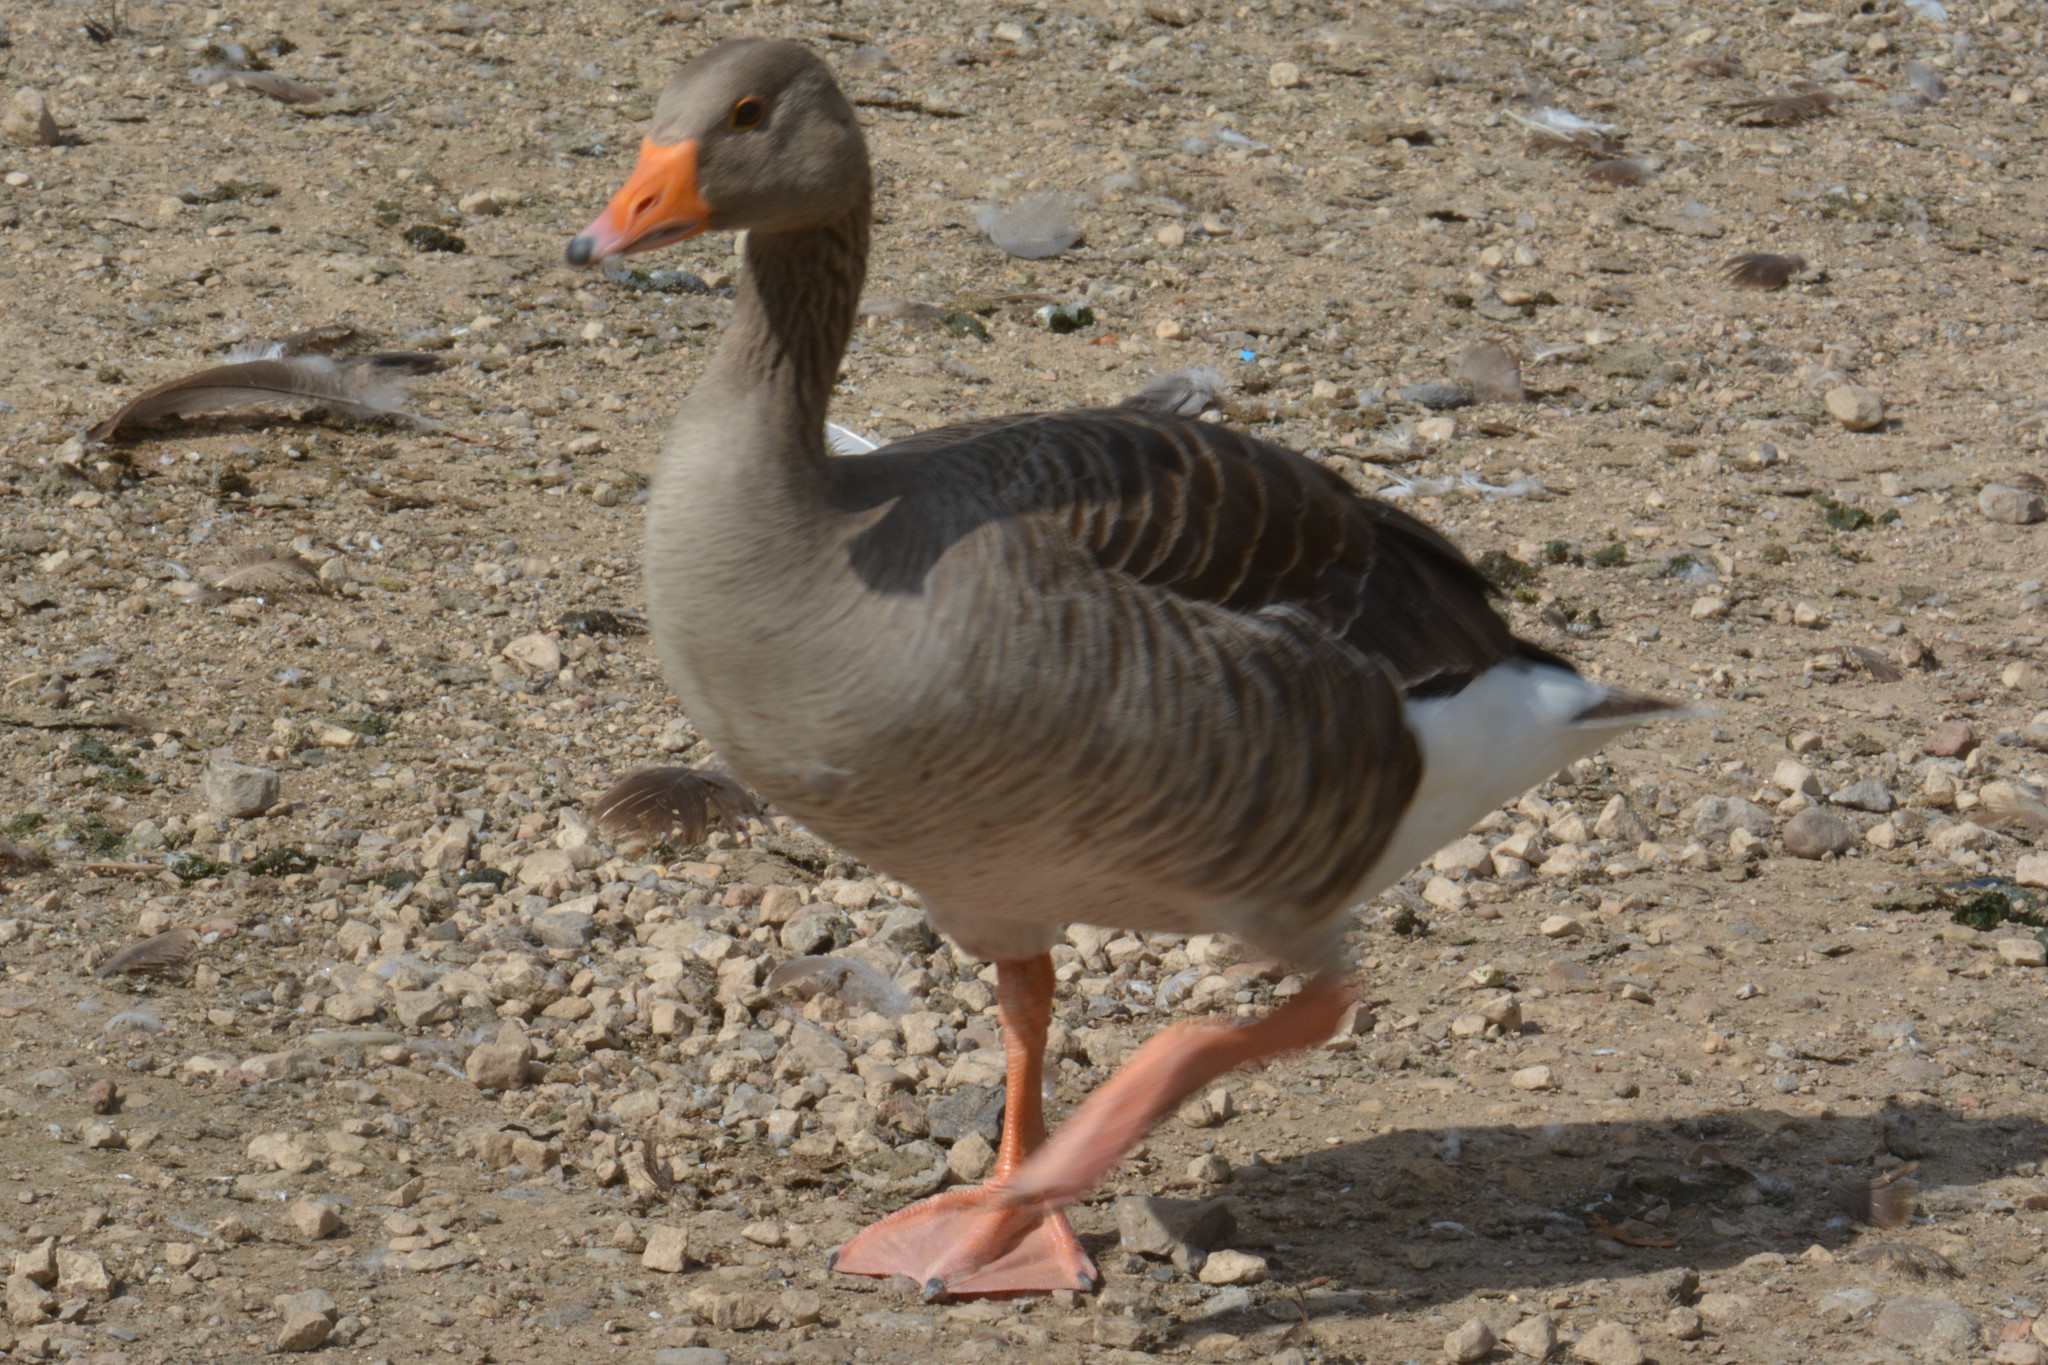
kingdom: Animalia
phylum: Chordata
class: Aves
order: Anseriformes
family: Anatidae
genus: Anser
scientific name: Anser anser
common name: Greylag goose
